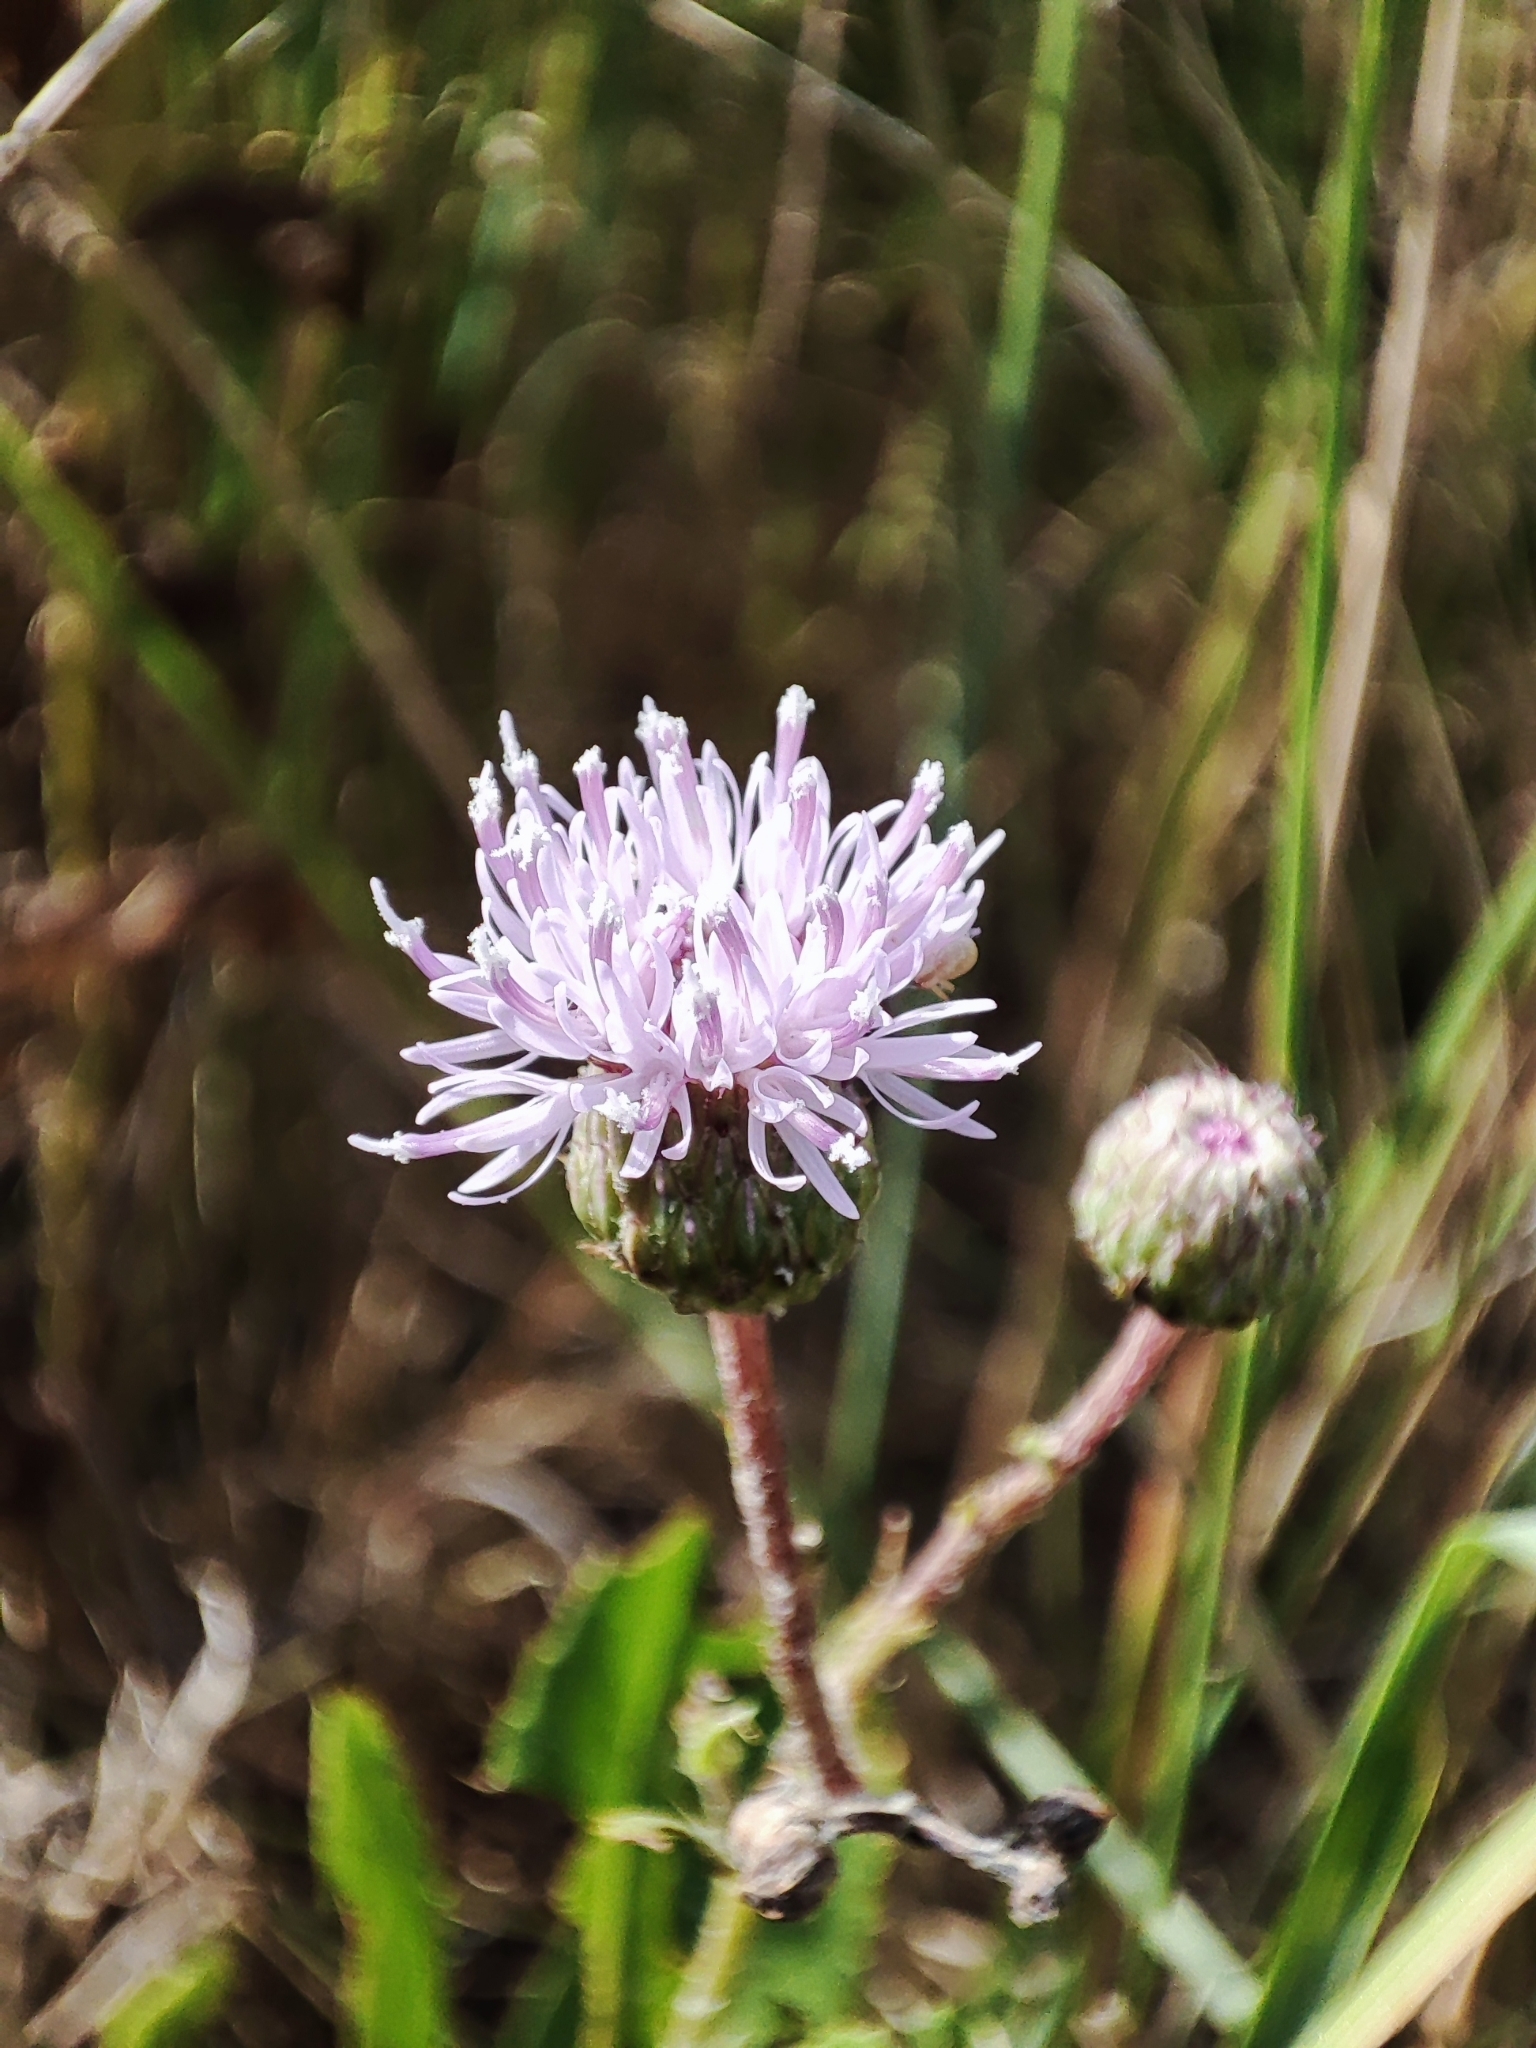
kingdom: Plantae
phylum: Tracheophyta
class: Magnoliopsida
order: Asterales
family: Asteraceae
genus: Cirsium
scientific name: Cirsium arvense
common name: Creeping thistle
